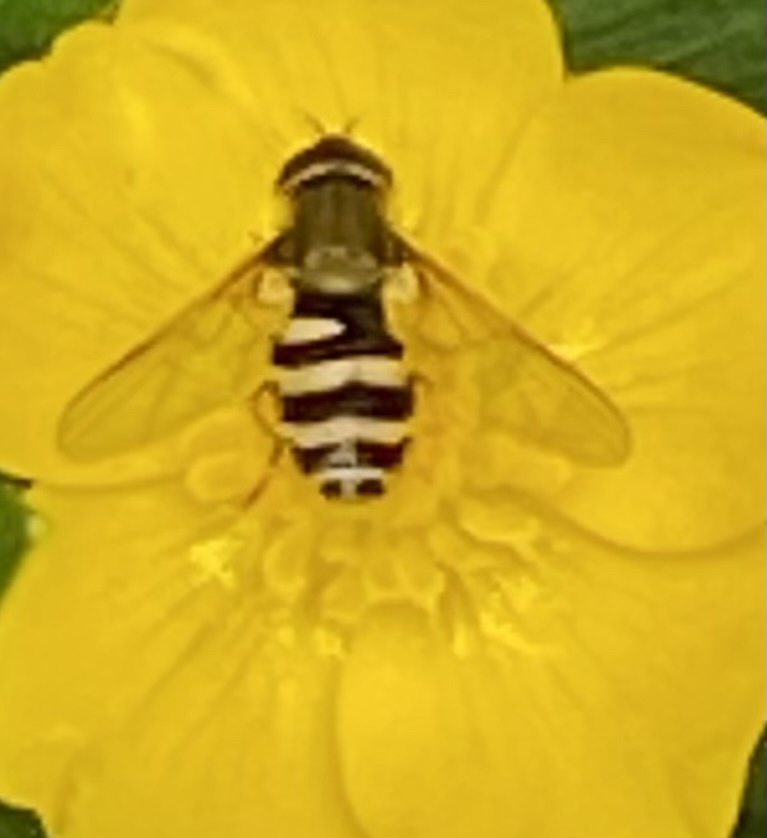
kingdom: Animalia
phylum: Arthropoda
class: Insecta
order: Diptera
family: Syrphidae
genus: Syrphus
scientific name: Syrphus
